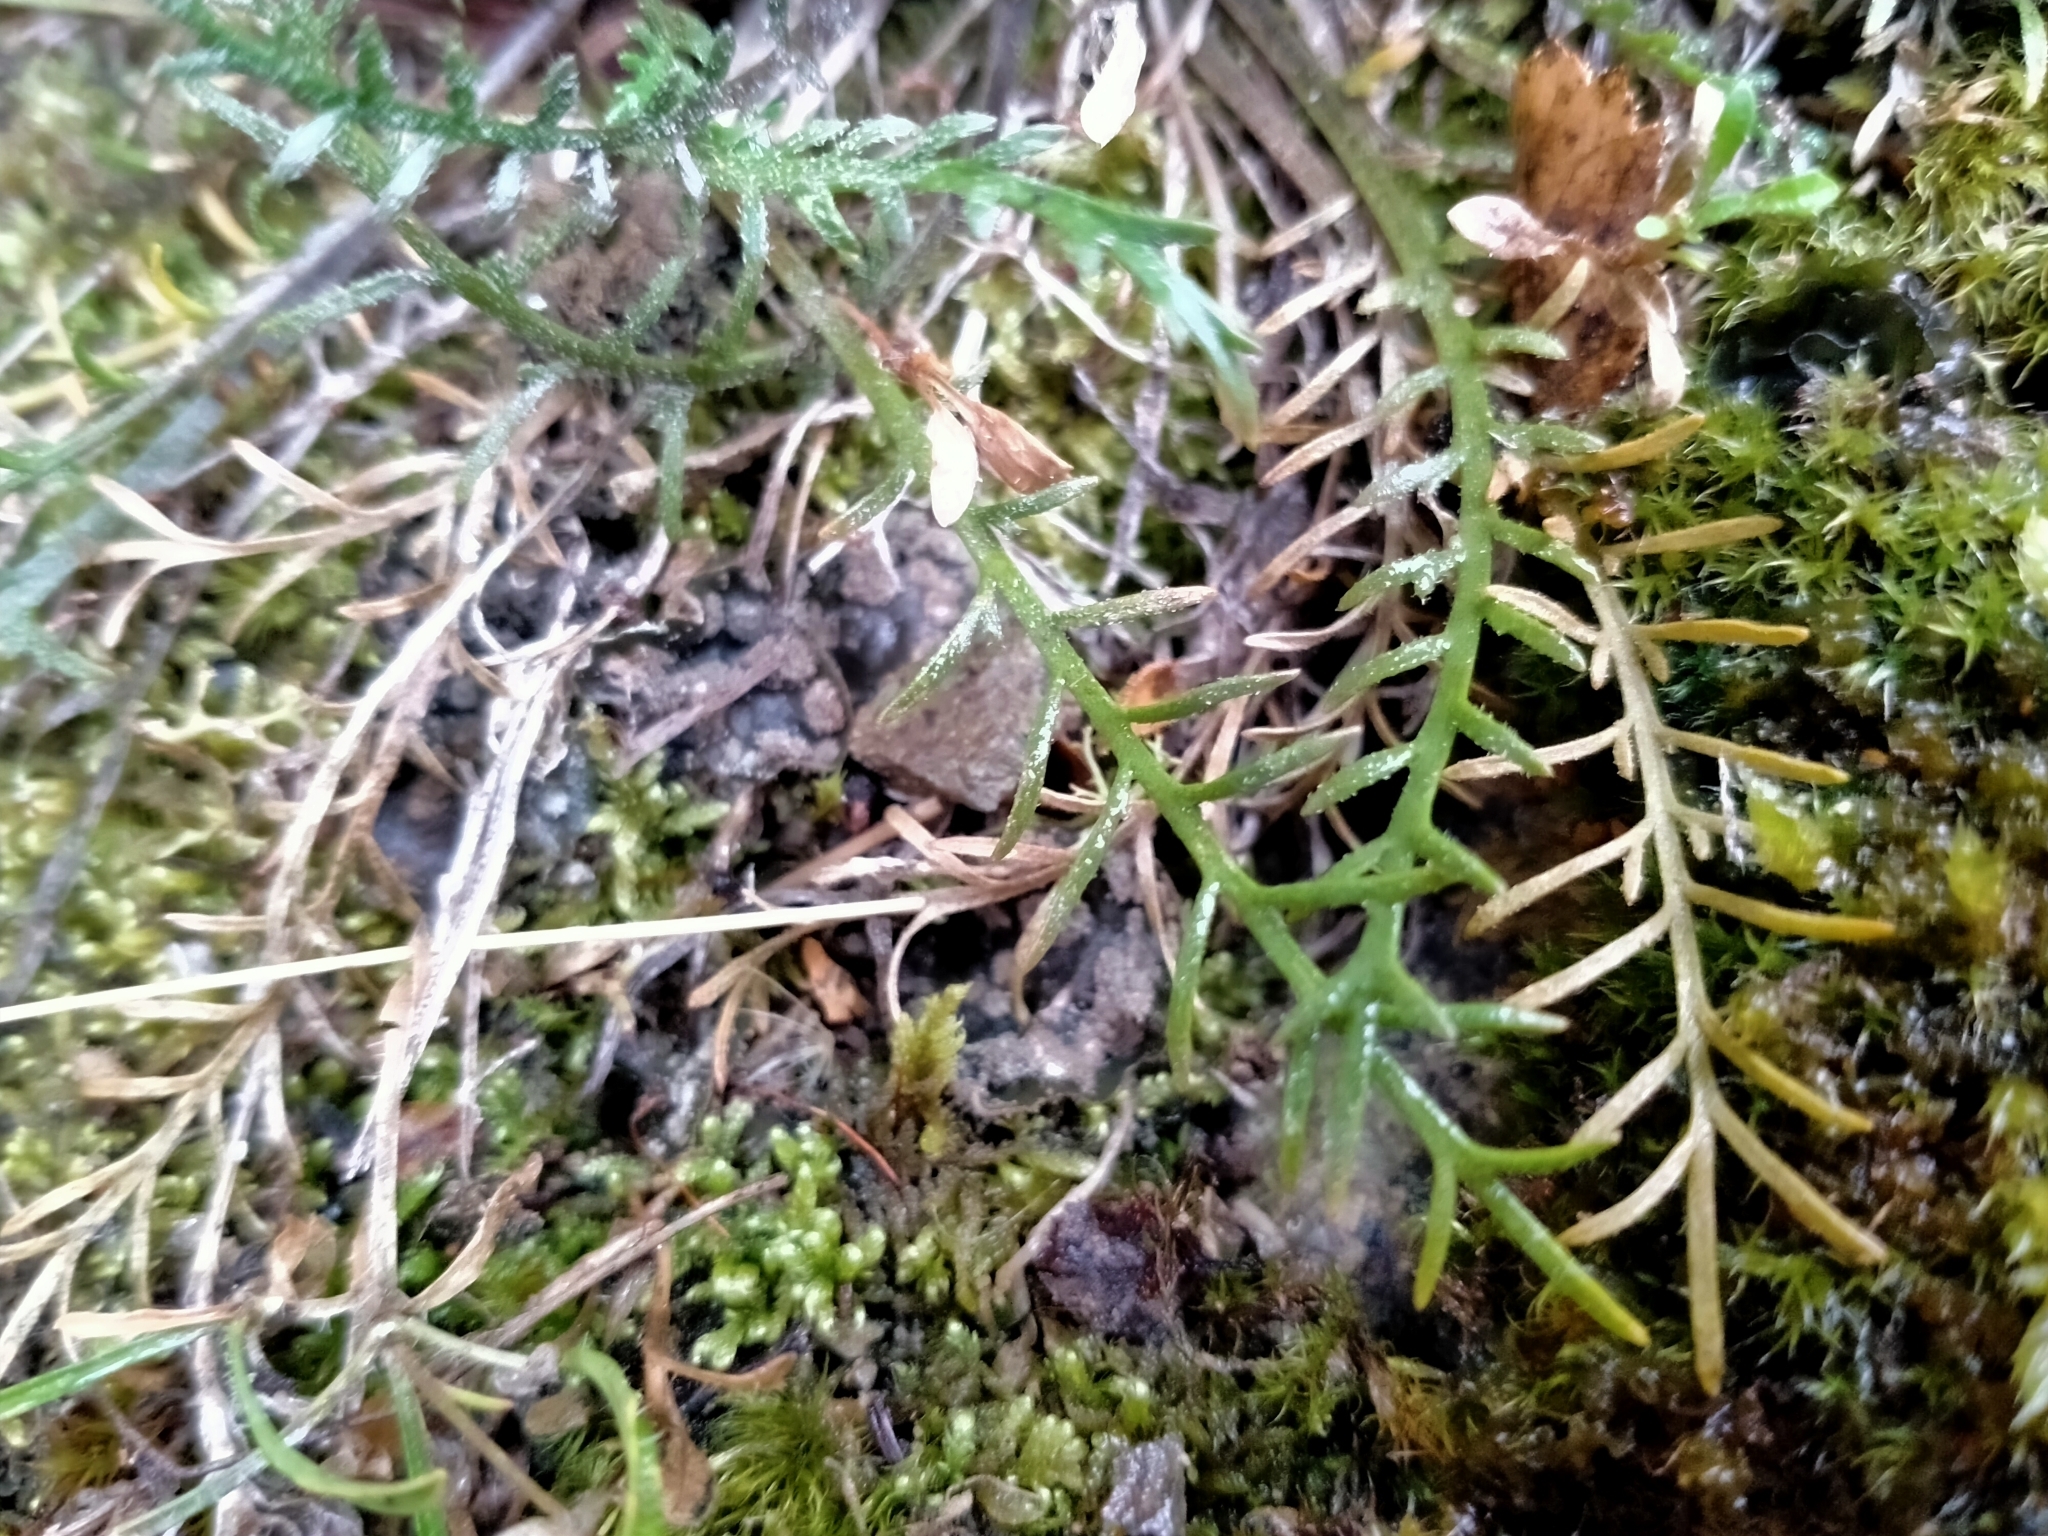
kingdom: Plantae
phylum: Tracheophyta
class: Magnoliopsida
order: Brassicales
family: Brassicaceae
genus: Lepidium
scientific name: Lepidium sisymbrioides
